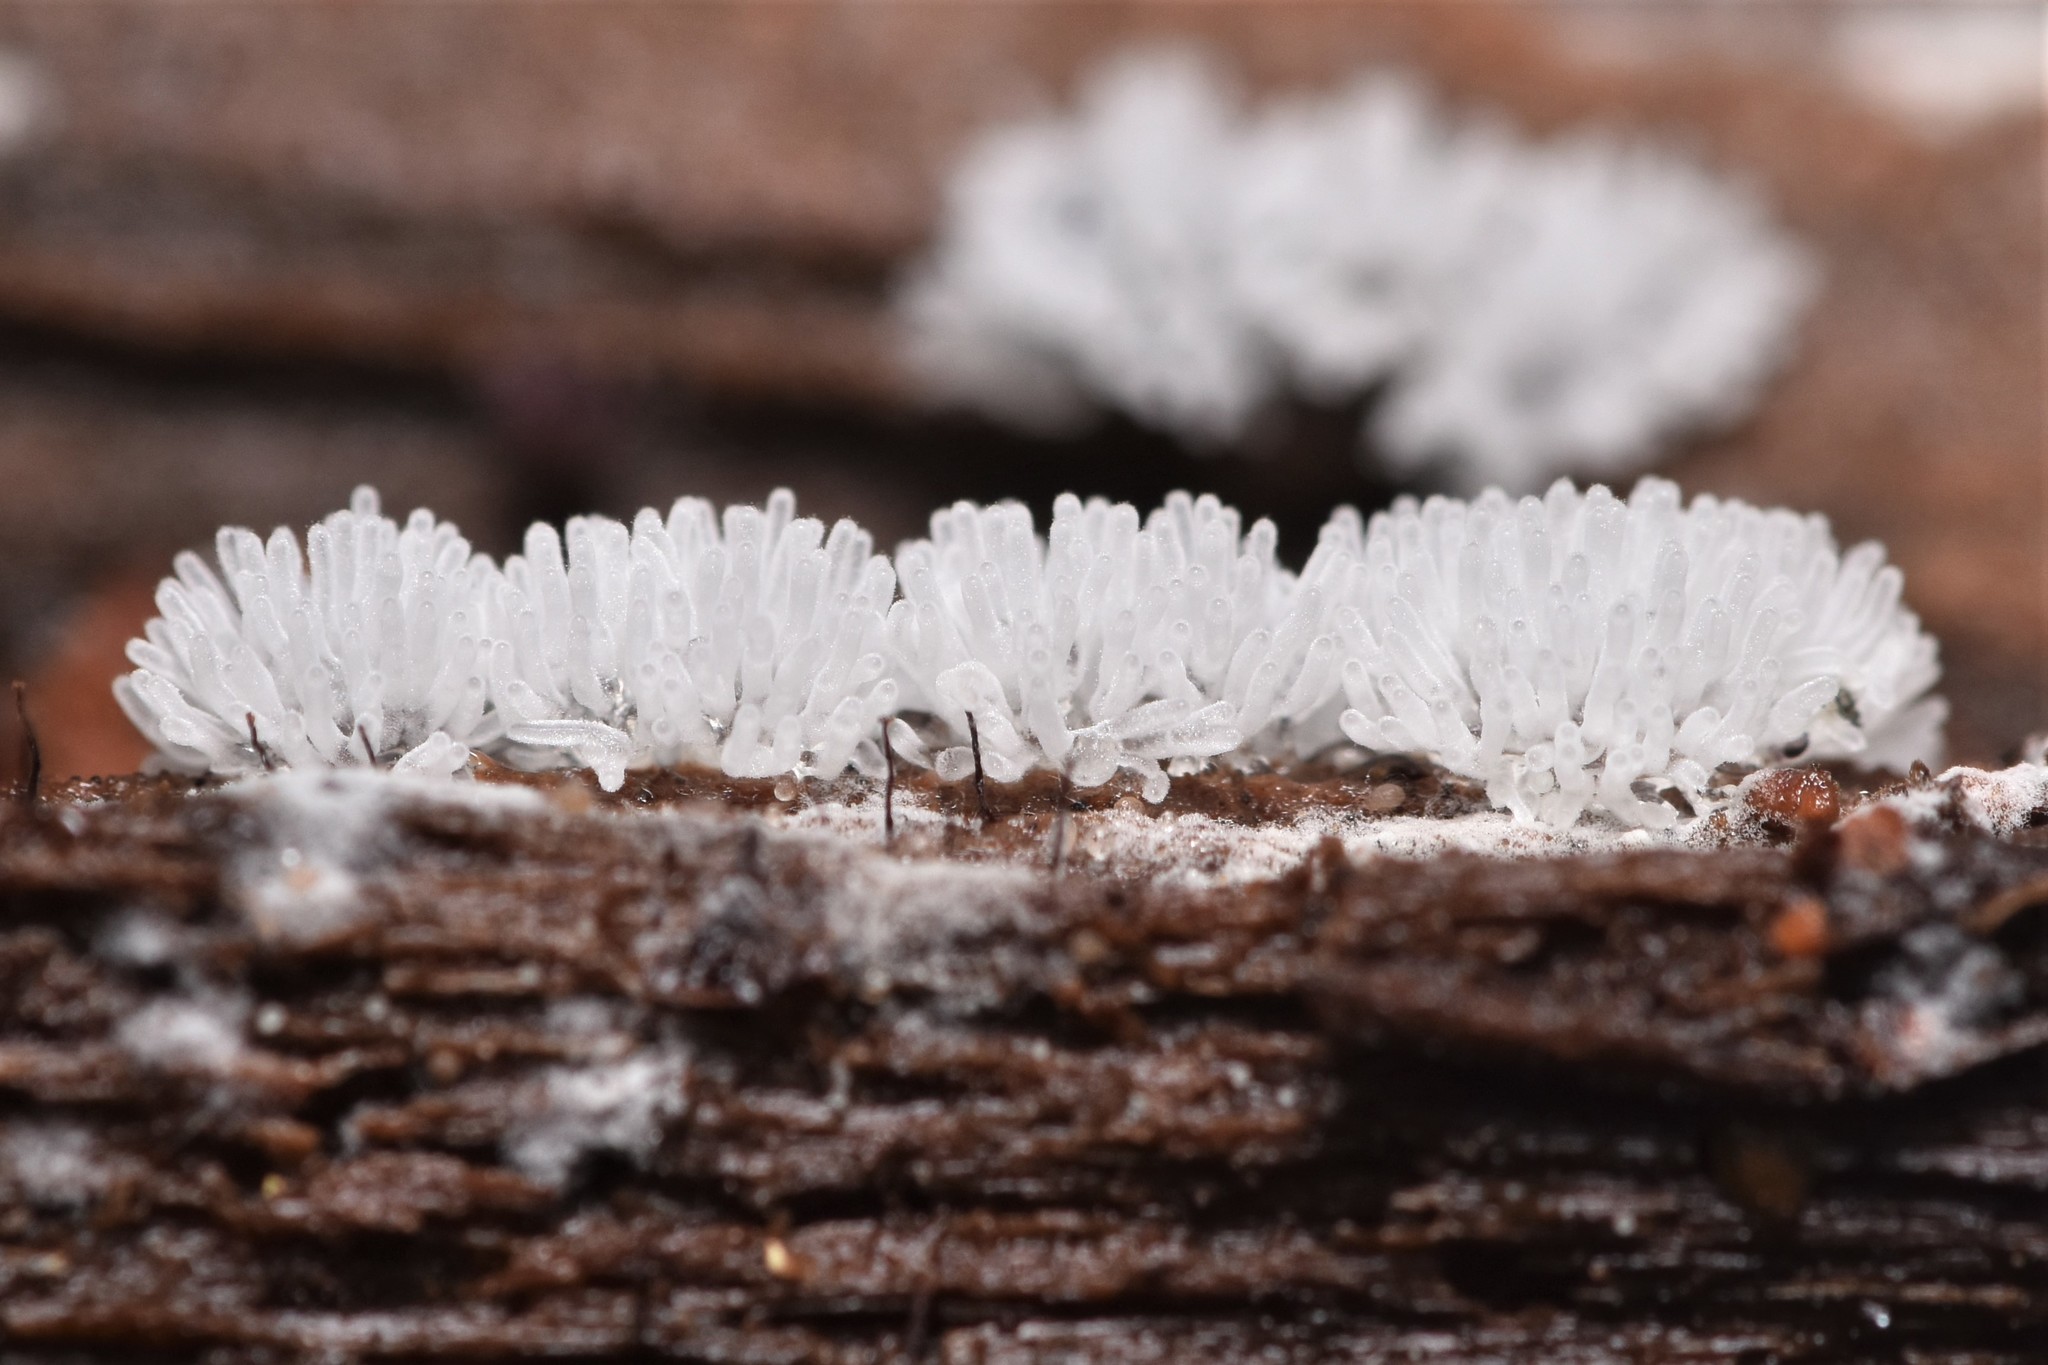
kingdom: Protozoa
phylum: Mycetozoa
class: Protosteliomycetes
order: Ceratiomyxales
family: Ceratiomyxaceae
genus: Ceratiomyxa
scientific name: Ceratiomyxa fruticulosa
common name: Honeycomb coral slime mold
